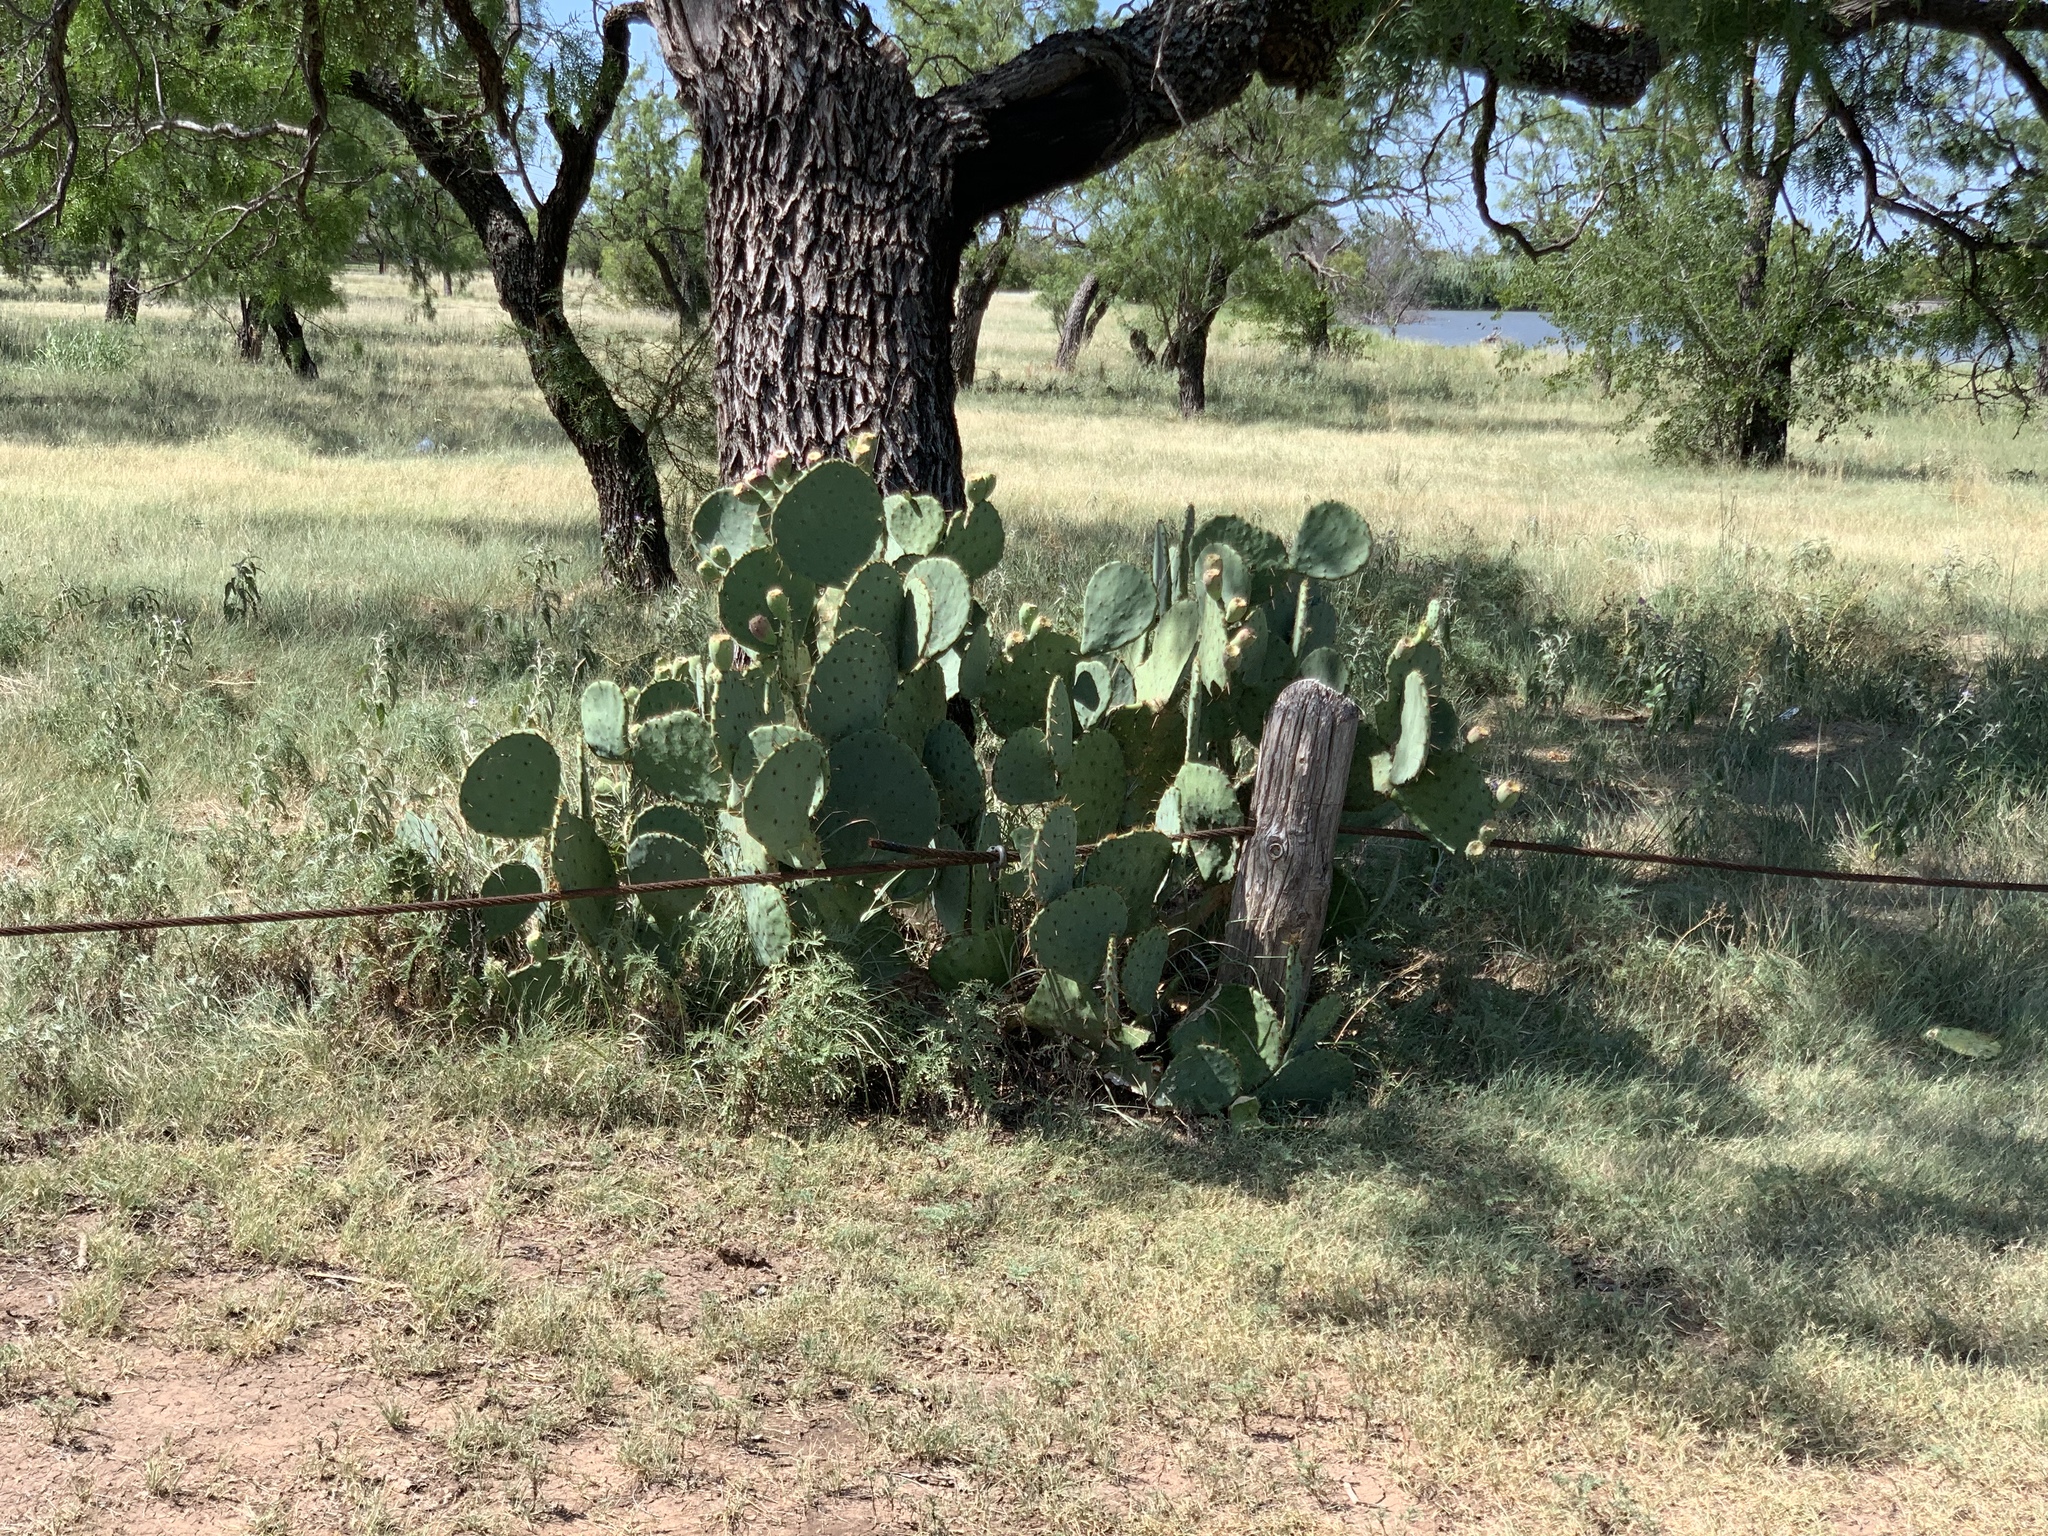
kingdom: Plantae
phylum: Tracheophyta
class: Magnoliopsida
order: Caryophyllales
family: Cactaceae
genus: Opuntia
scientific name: Opuntia engelmannii
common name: Cactus-apple
